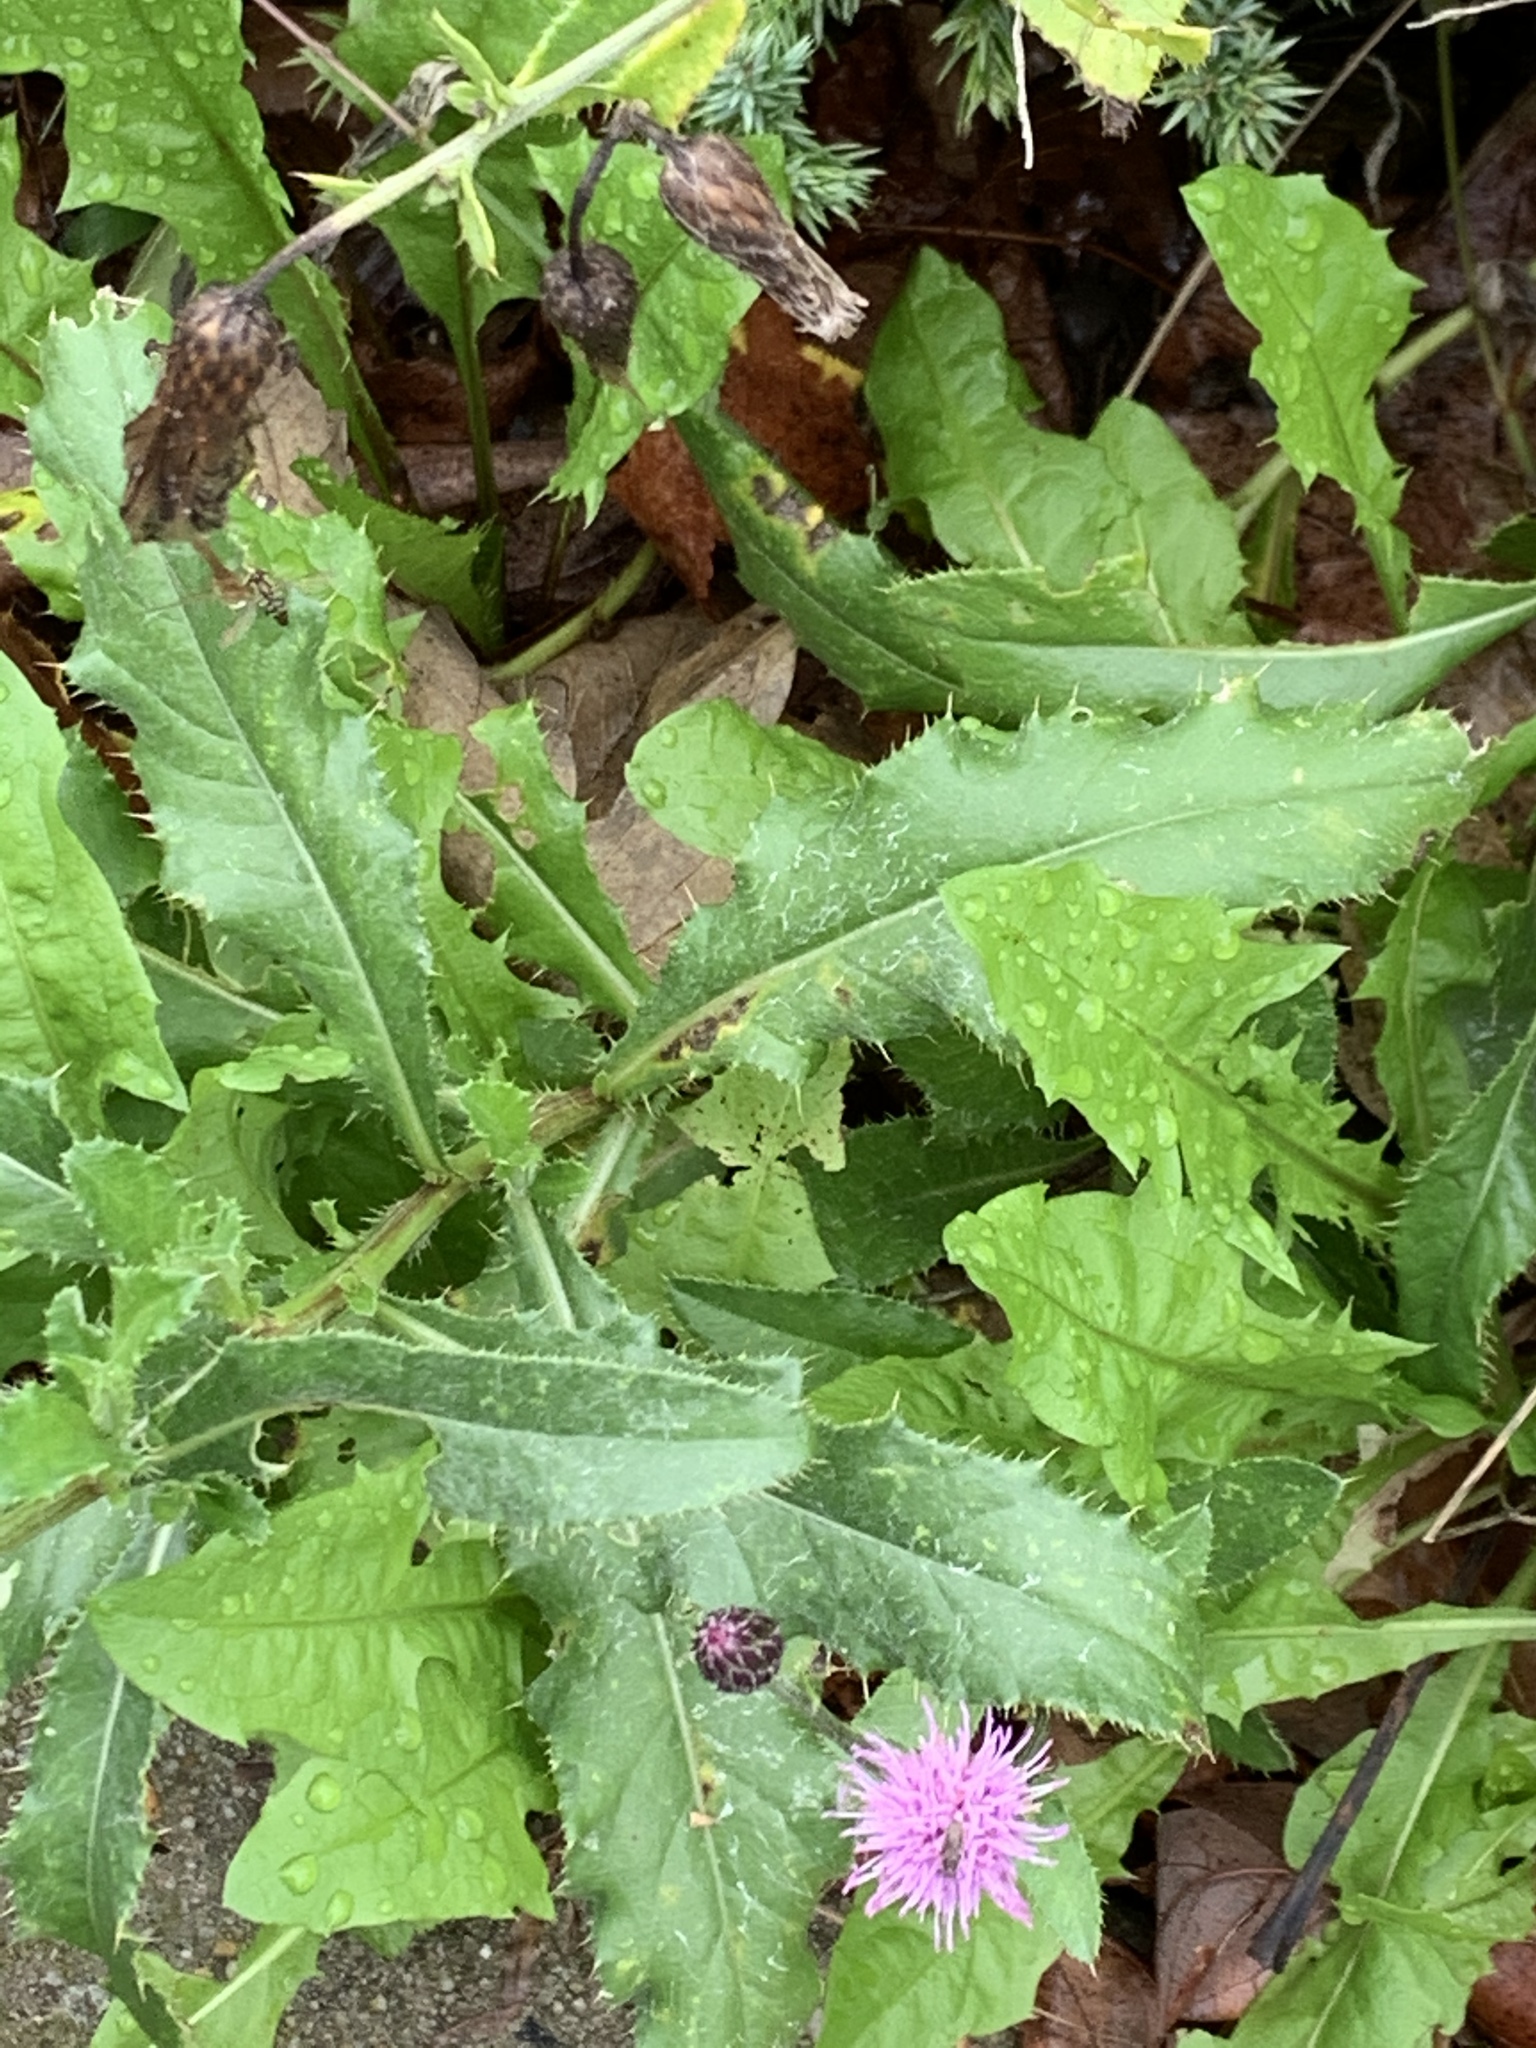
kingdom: Plantae
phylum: Tracheophyta
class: Magnoliopsida
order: Asterales
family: Asteraceae
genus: Cirsium
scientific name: Cirsium arvense
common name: Creeping thistle
